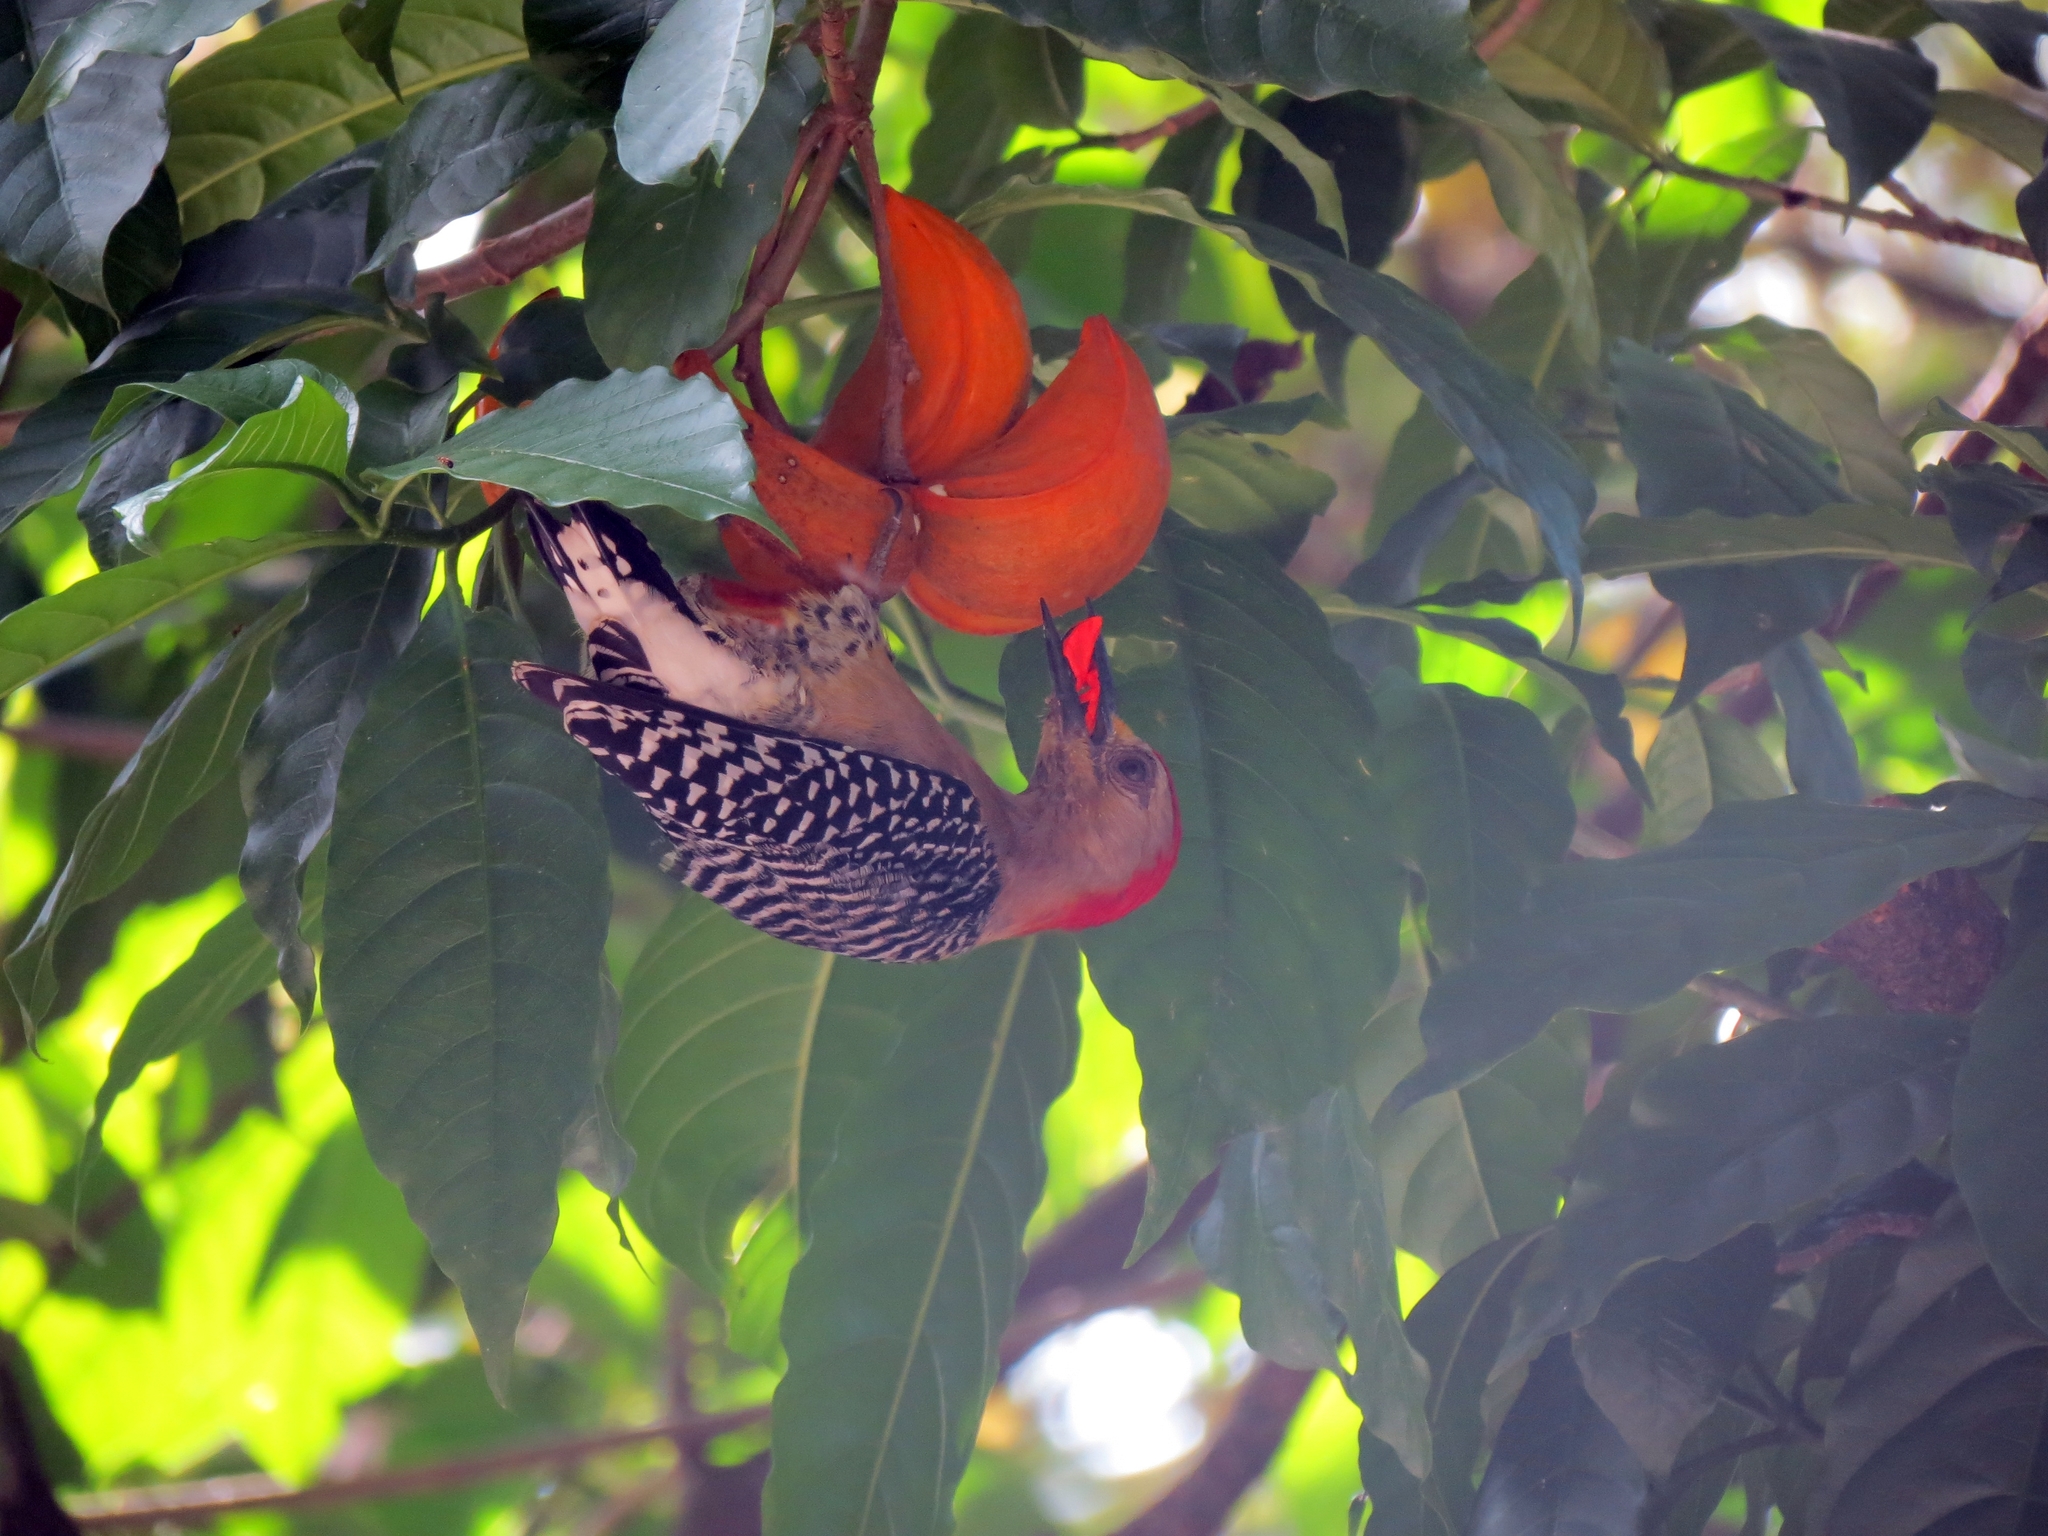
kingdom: Animalia
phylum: Chordata
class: Aves
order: Piciformes
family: Picidae
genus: Melanerpes
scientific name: Melanerpes rubricapillus
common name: Red-crowned woodpecker
